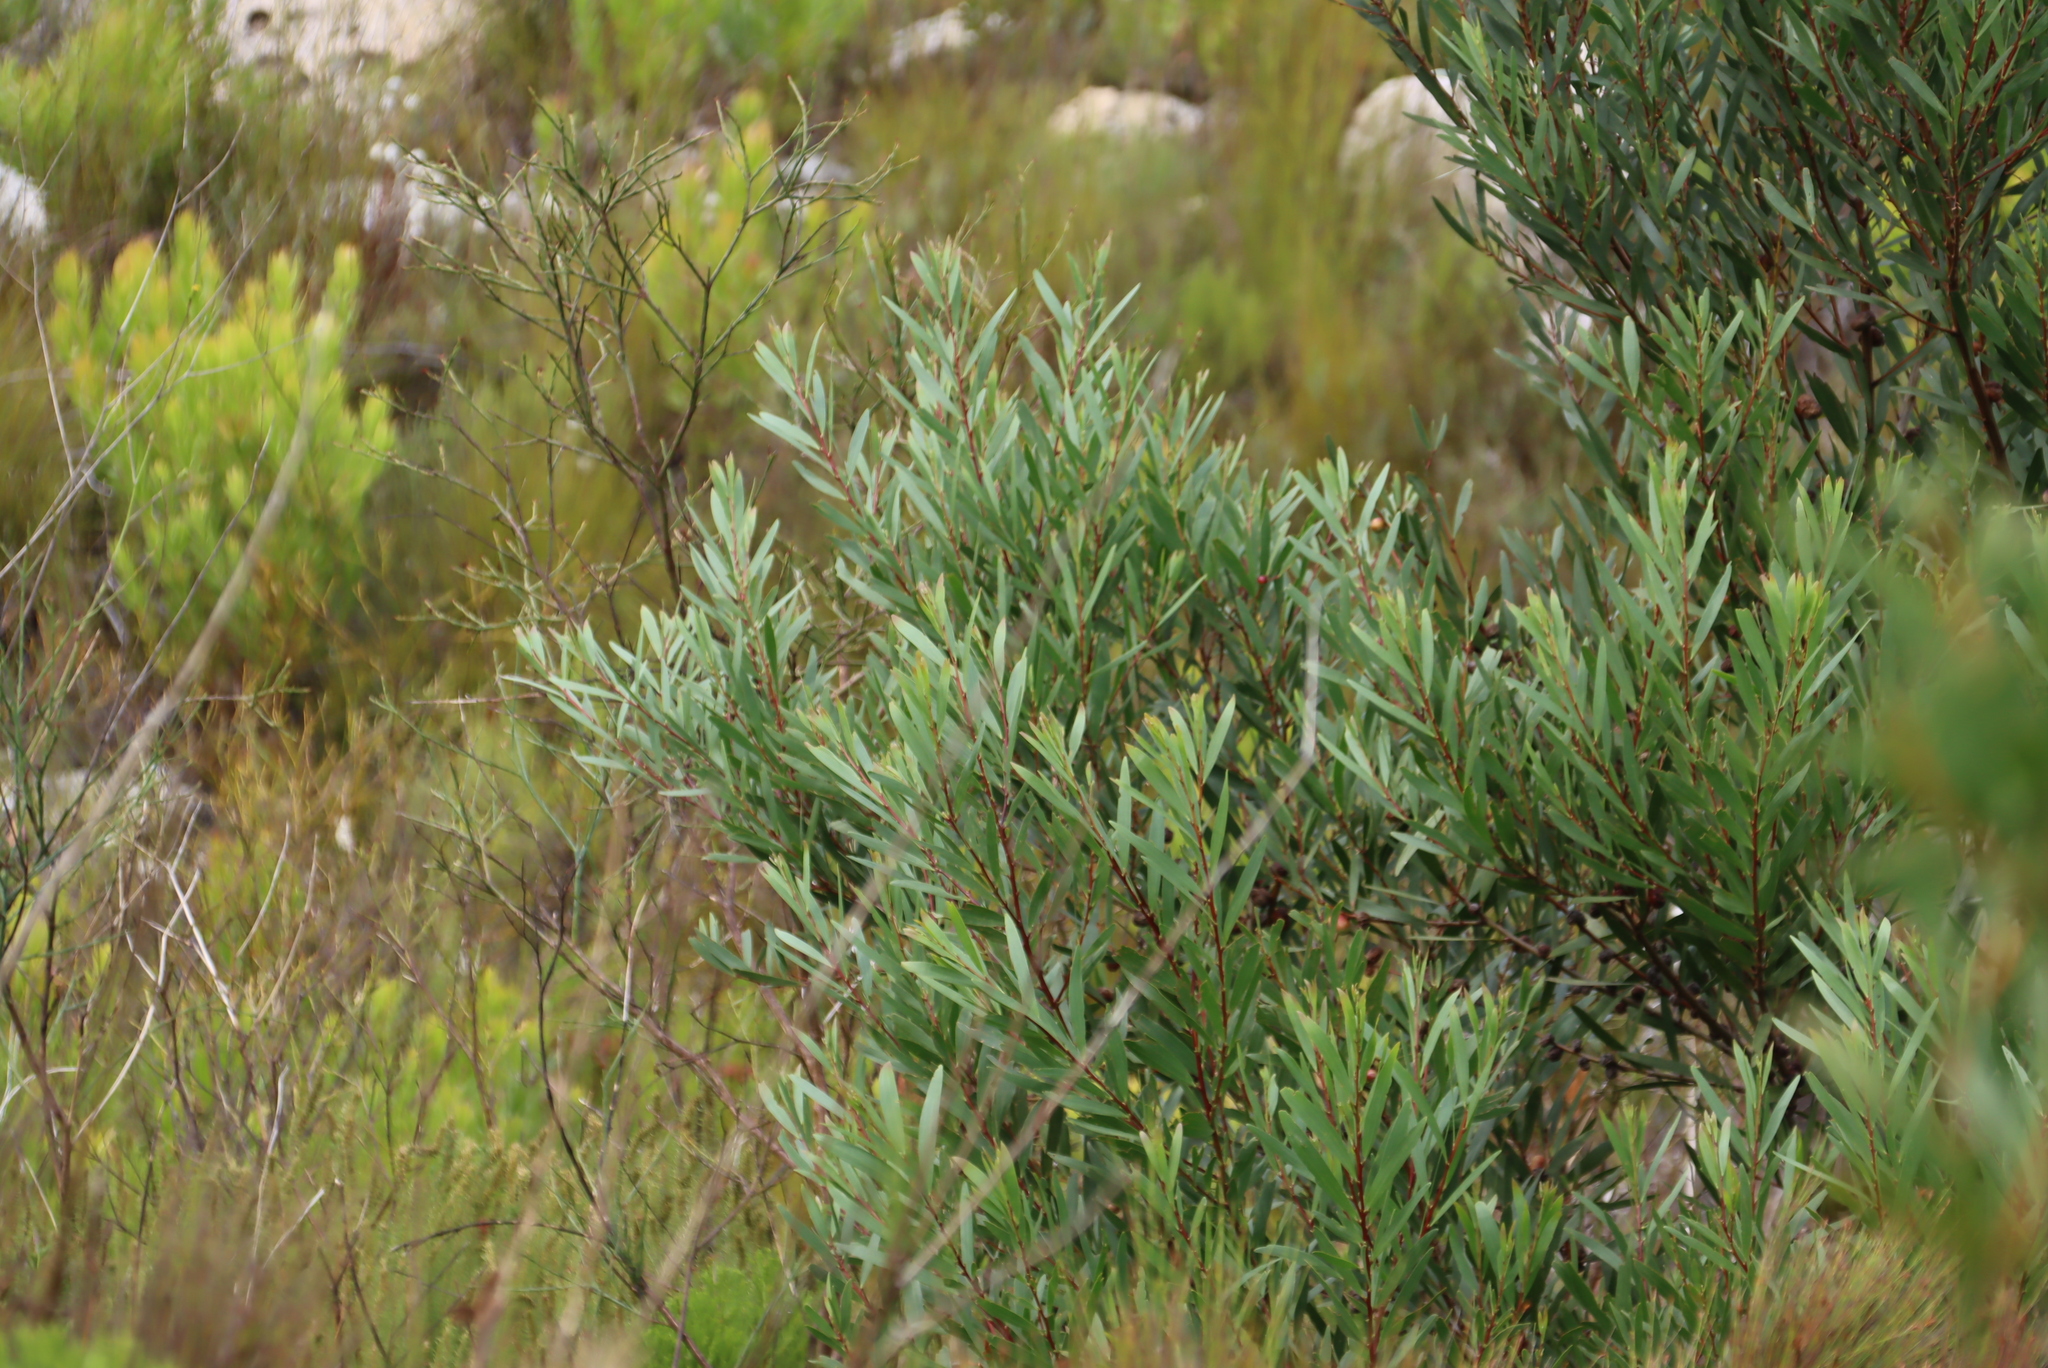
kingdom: Plantae
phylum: Tracheophyta
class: Magnoliopsida
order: Fabales
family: Fabaceae
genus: Acacia
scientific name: Acacia longifolia
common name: Sydney golden wattle
